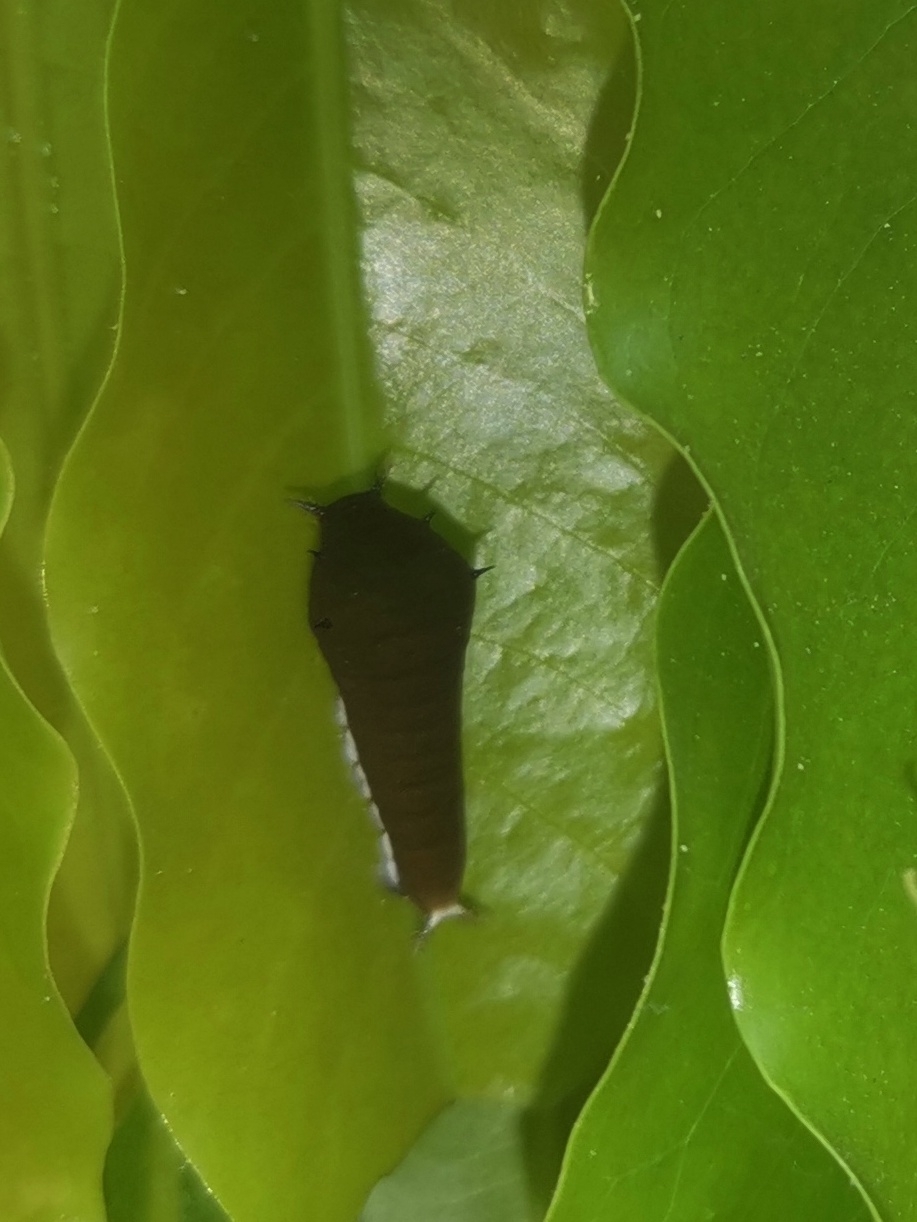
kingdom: Animalia
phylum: Arthropoda
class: Insecta
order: Lepidoptera
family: Papilionidae
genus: Graphium
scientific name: Graphium doson
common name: Common jay
